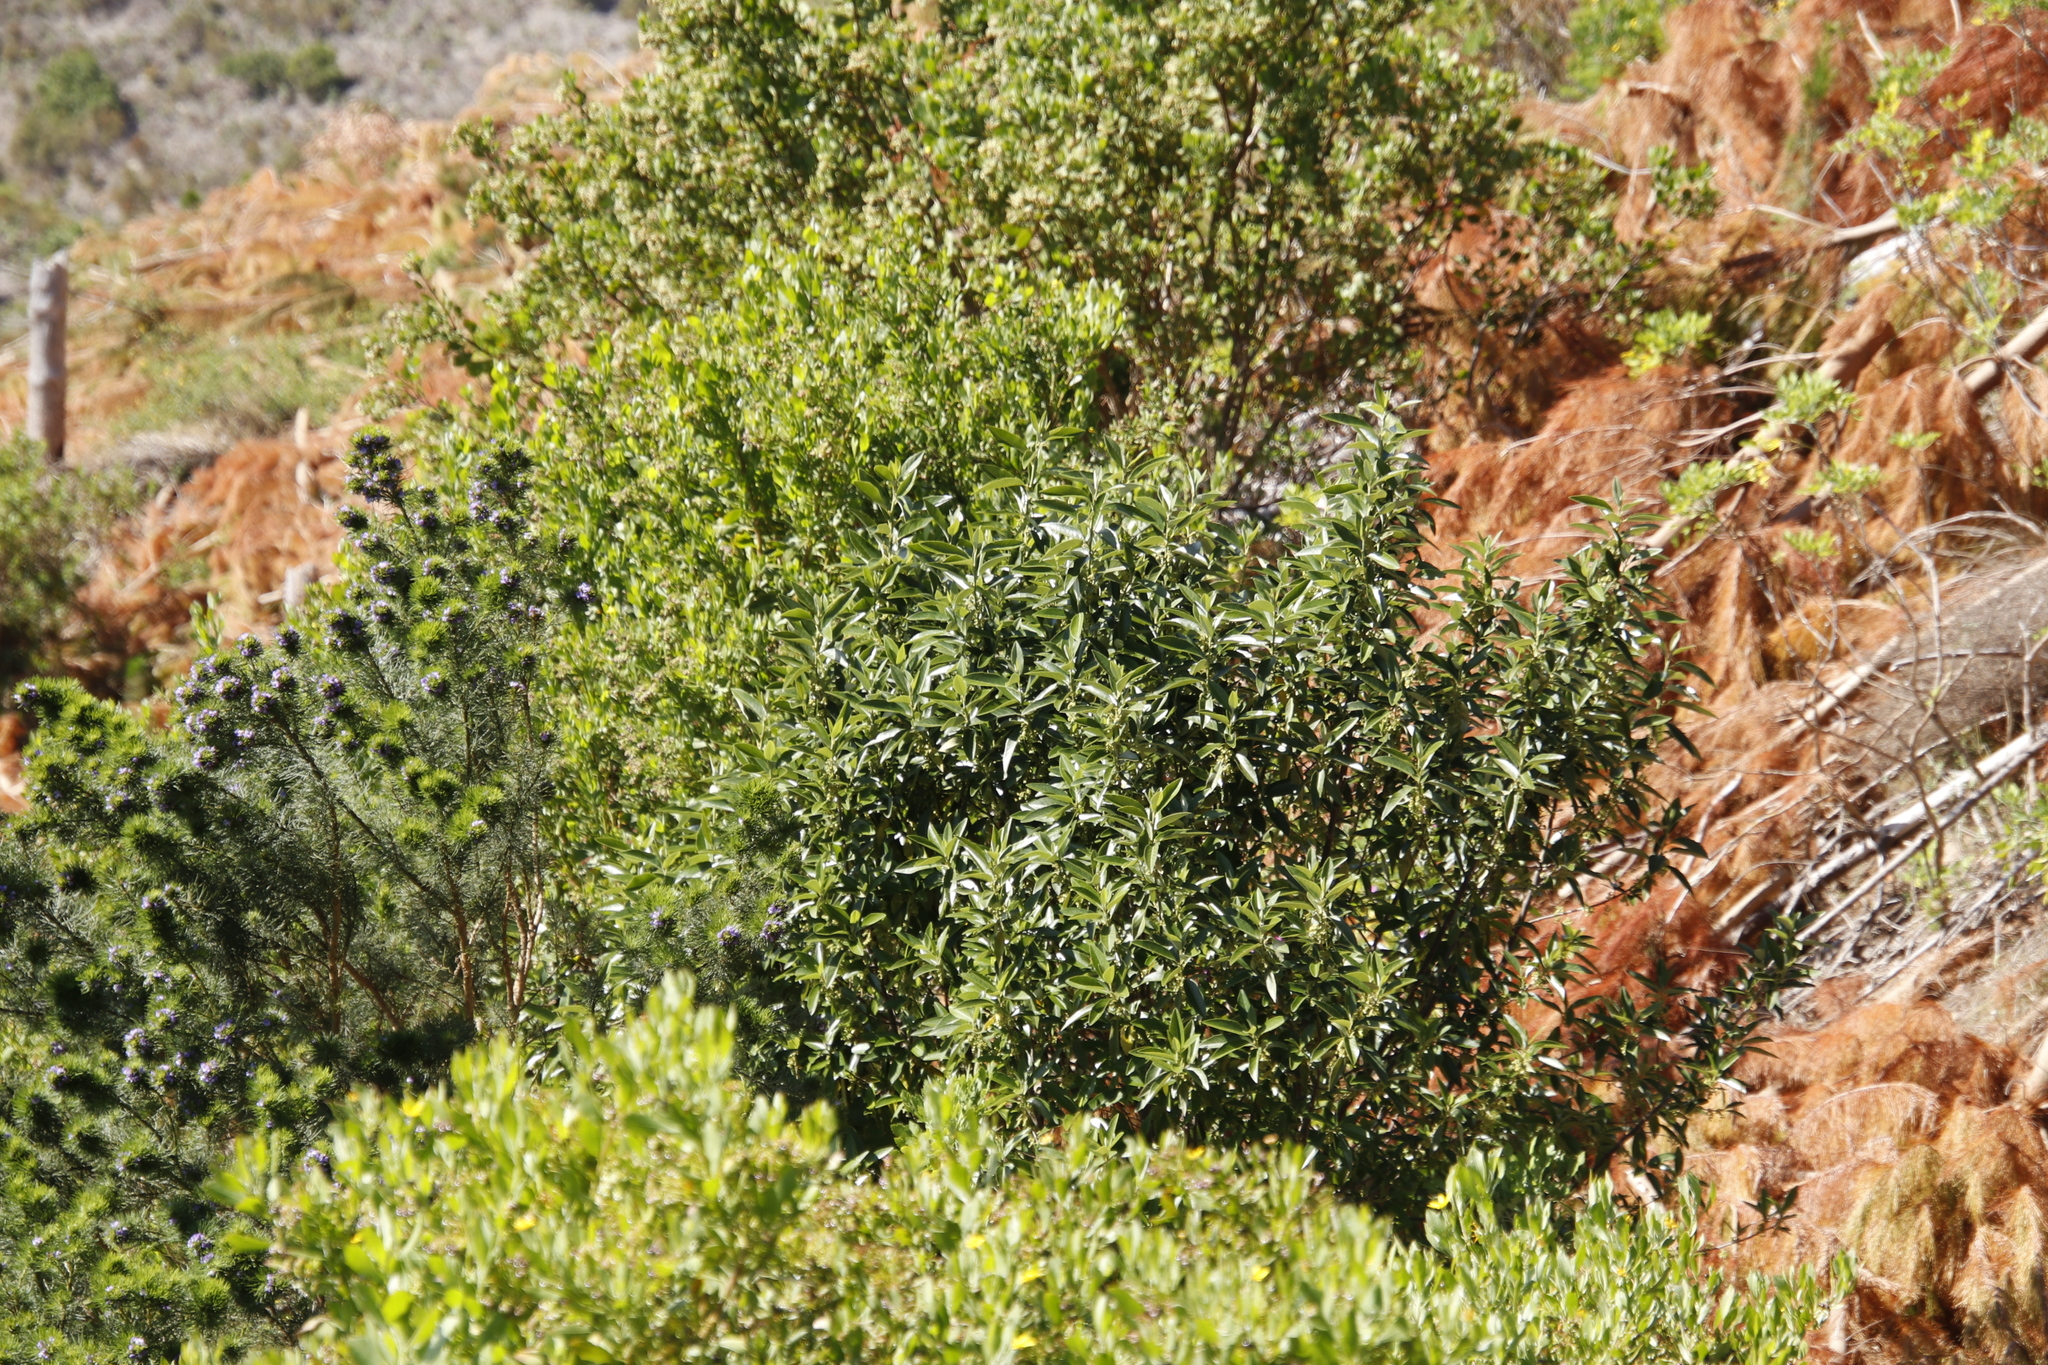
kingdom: Plantae
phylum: Tracheophyta
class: Magnoliopsida
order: Malpighiales
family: Achariaceae
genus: Kiggelaria
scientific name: Kiggelaria africana
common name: Wild peach
